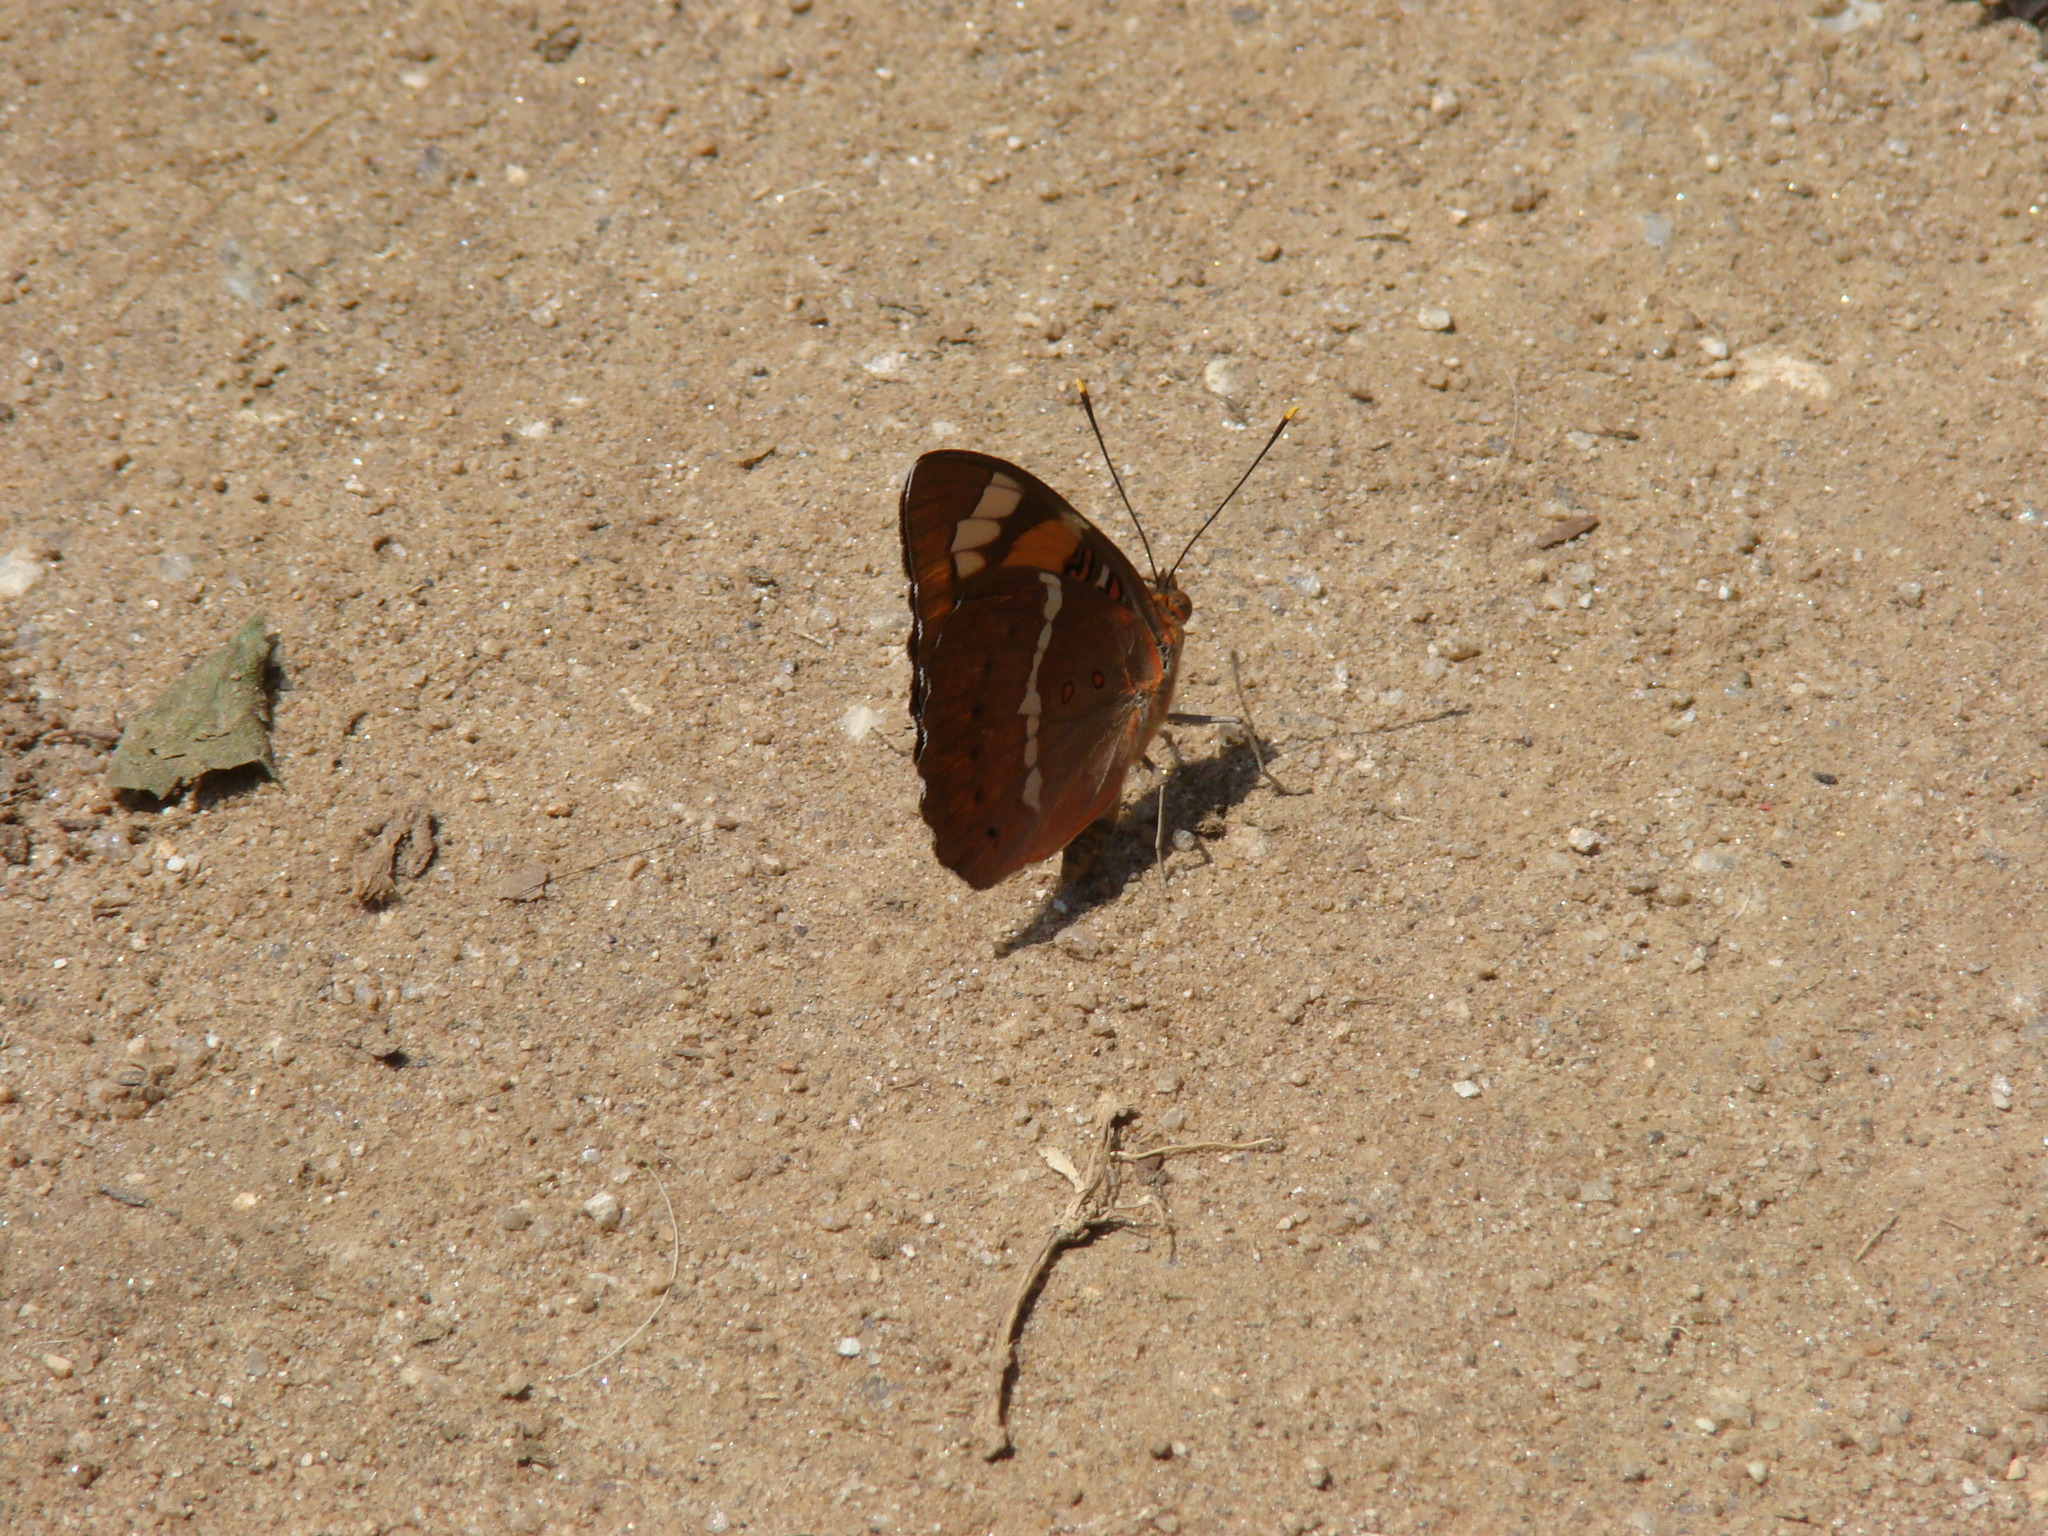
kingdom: Animalia
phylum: Arthropoda
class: Insecta
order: Lepidoptera
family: Nymphalidae
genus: Euthalia
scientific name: Euthalia nais
